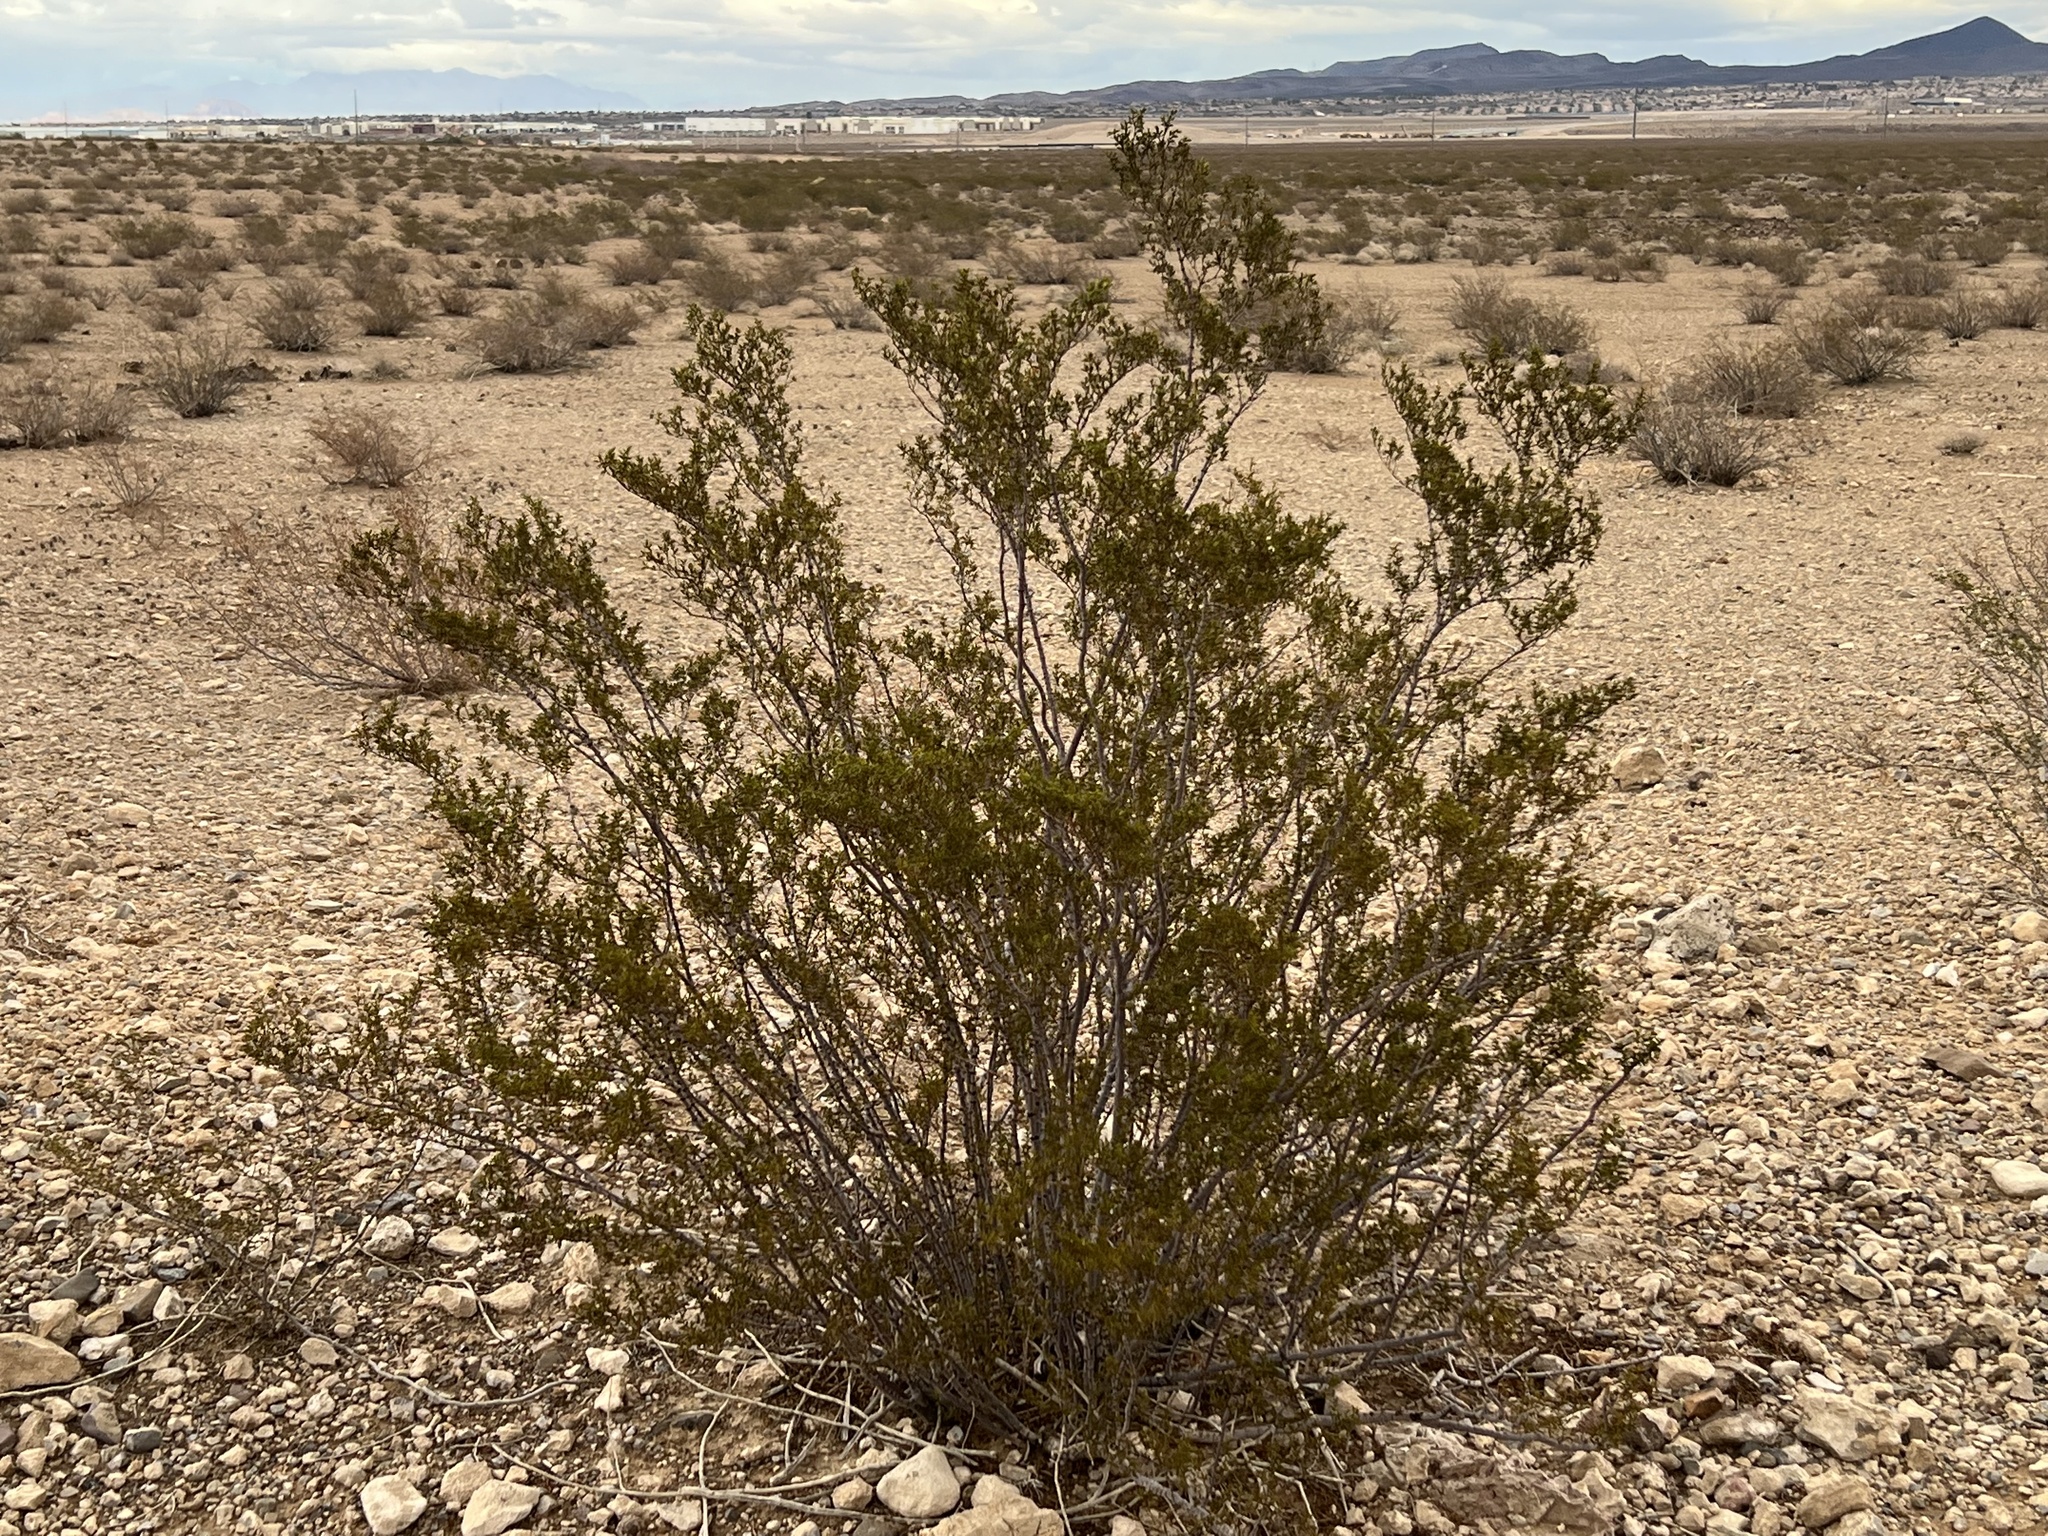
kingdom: Plantae
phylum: Tracheophyta
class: Magnoliopsida
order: Zygophyllales
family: Zygophyllaceae
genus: Larrea
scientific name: Larrea tridentata
